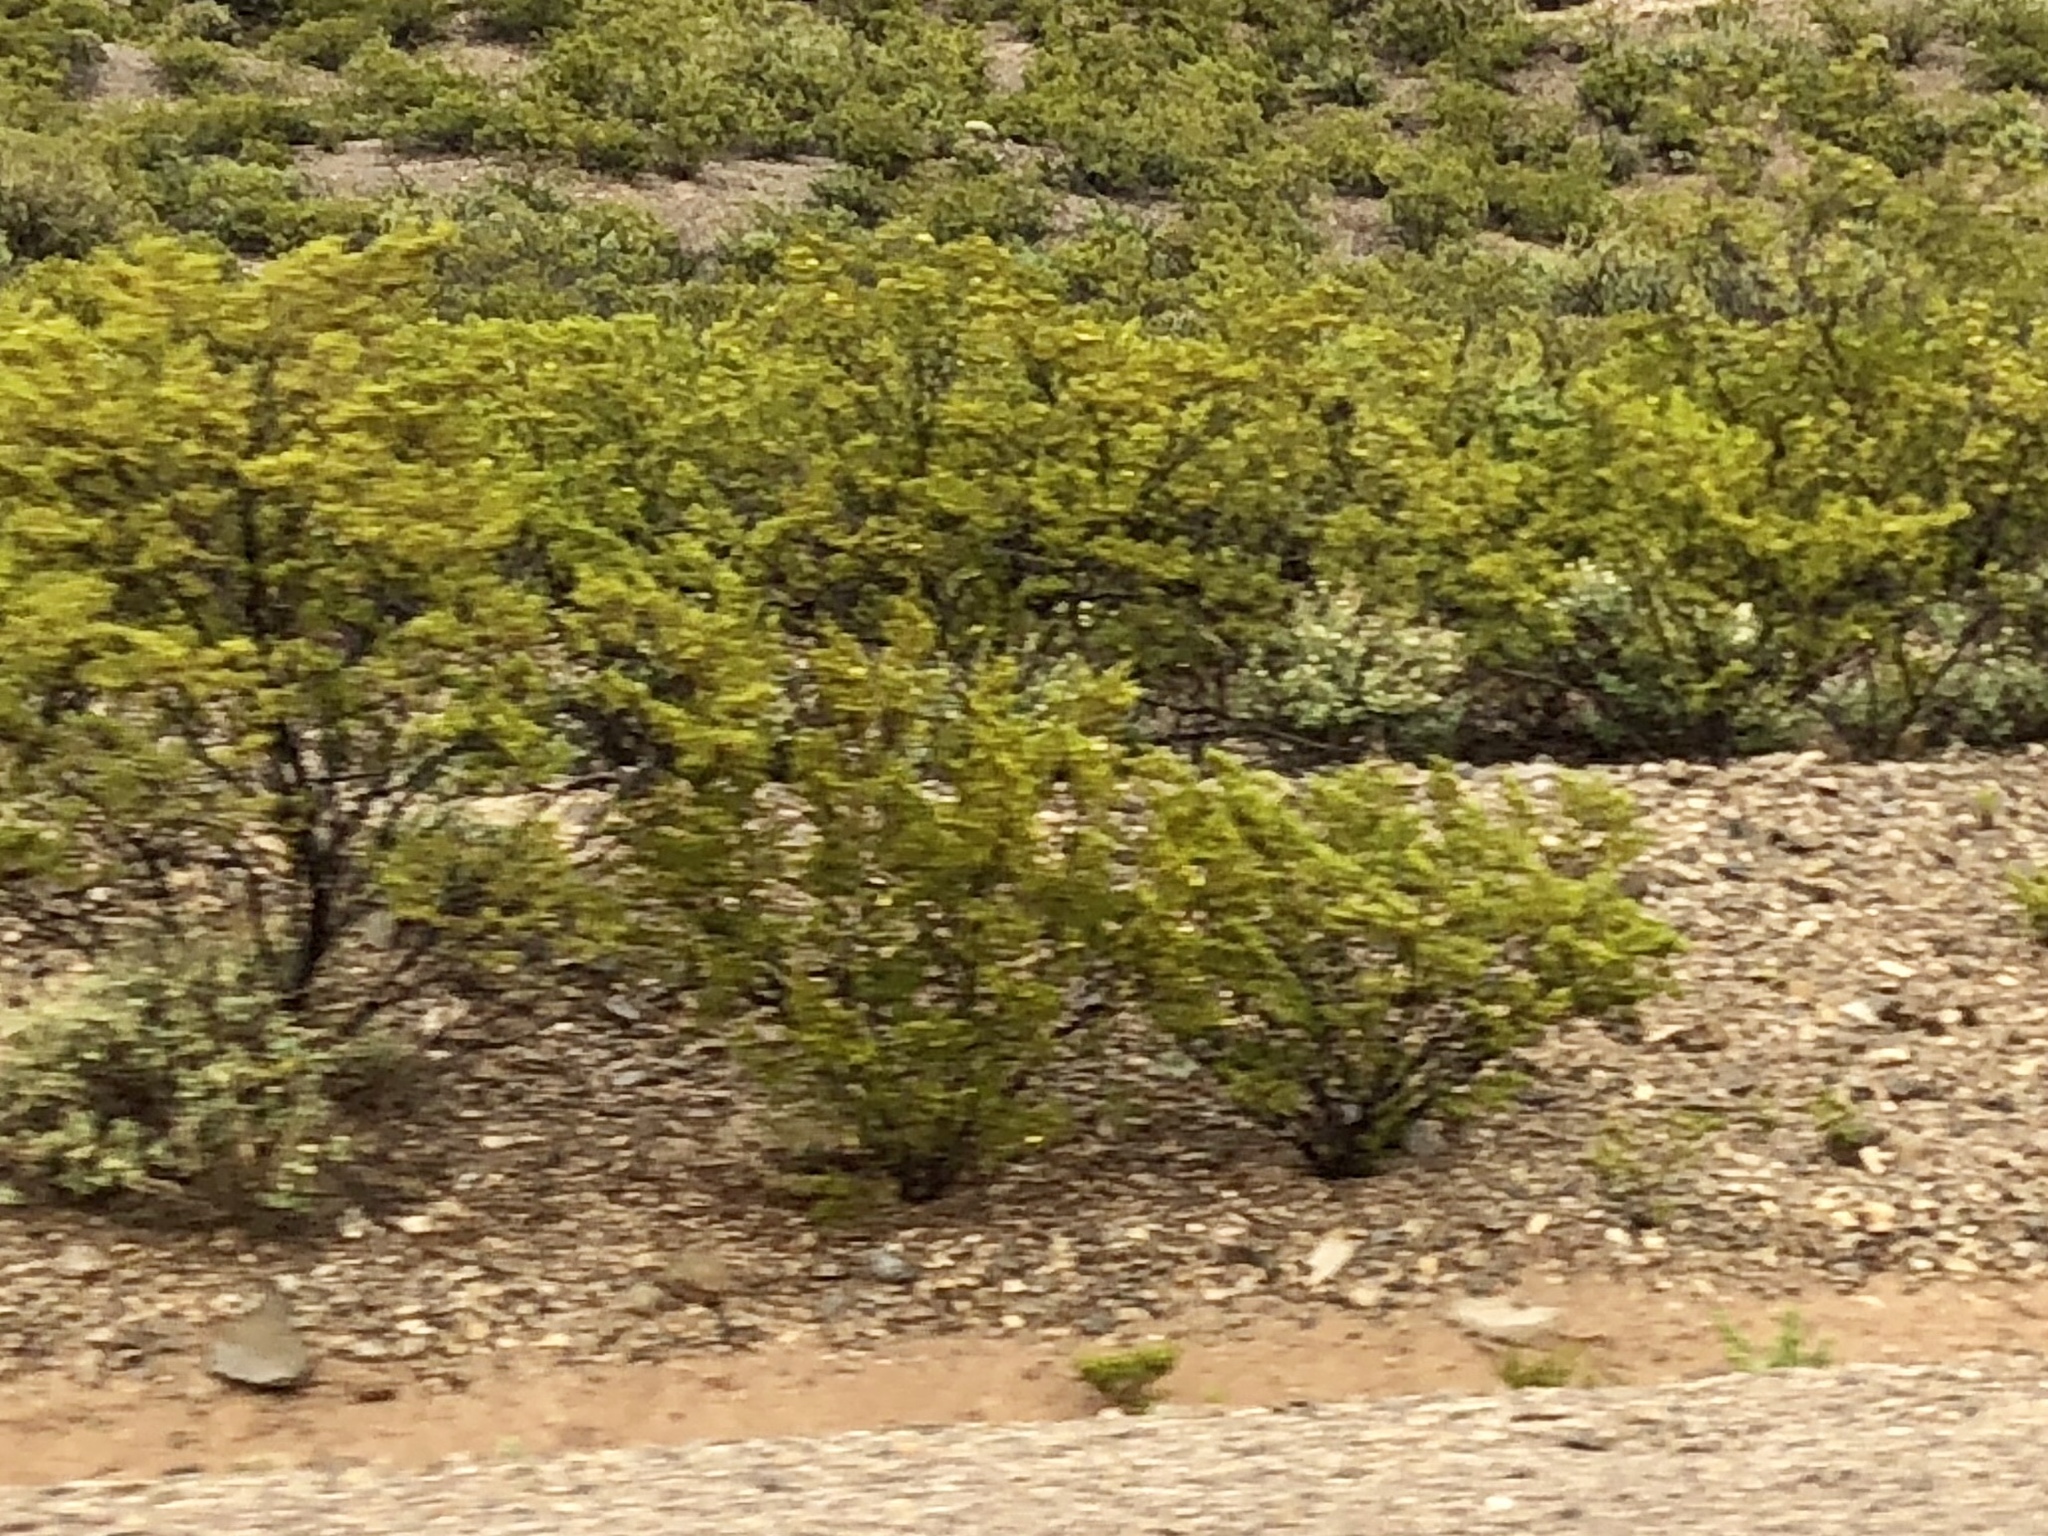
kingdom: Plantae
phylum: Tracheophyta
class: Magnoliopsida
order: Zygophyllales
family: Zygophyllaceae
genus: Larrea
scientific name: Larrea tridentata
